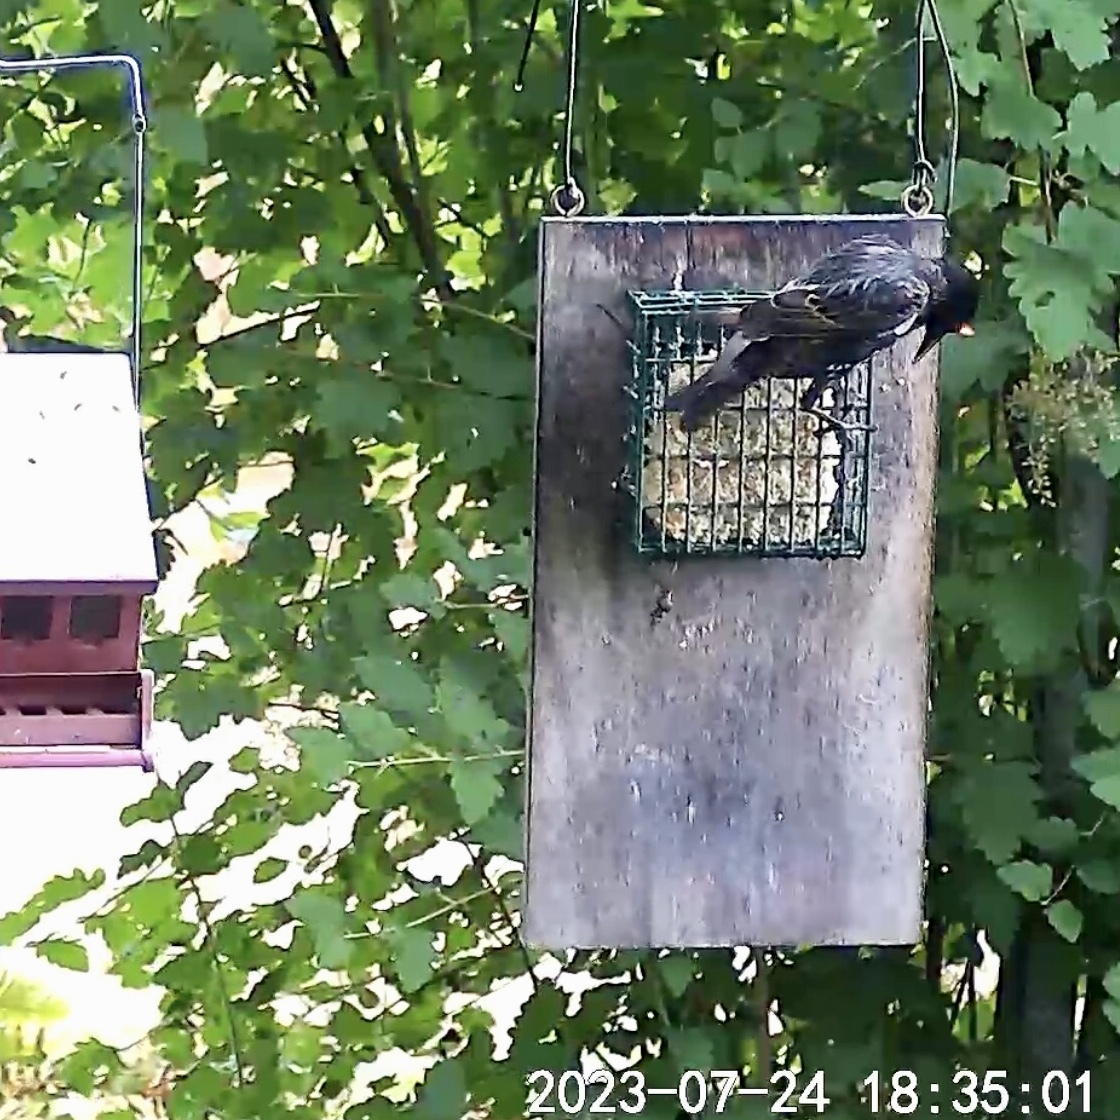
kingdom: Animalia
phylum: Chordata
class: Aves
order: Passeriformes
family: Sturnidae
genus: Sturnus
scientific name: Sturnus vulgaris
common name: Common starling
